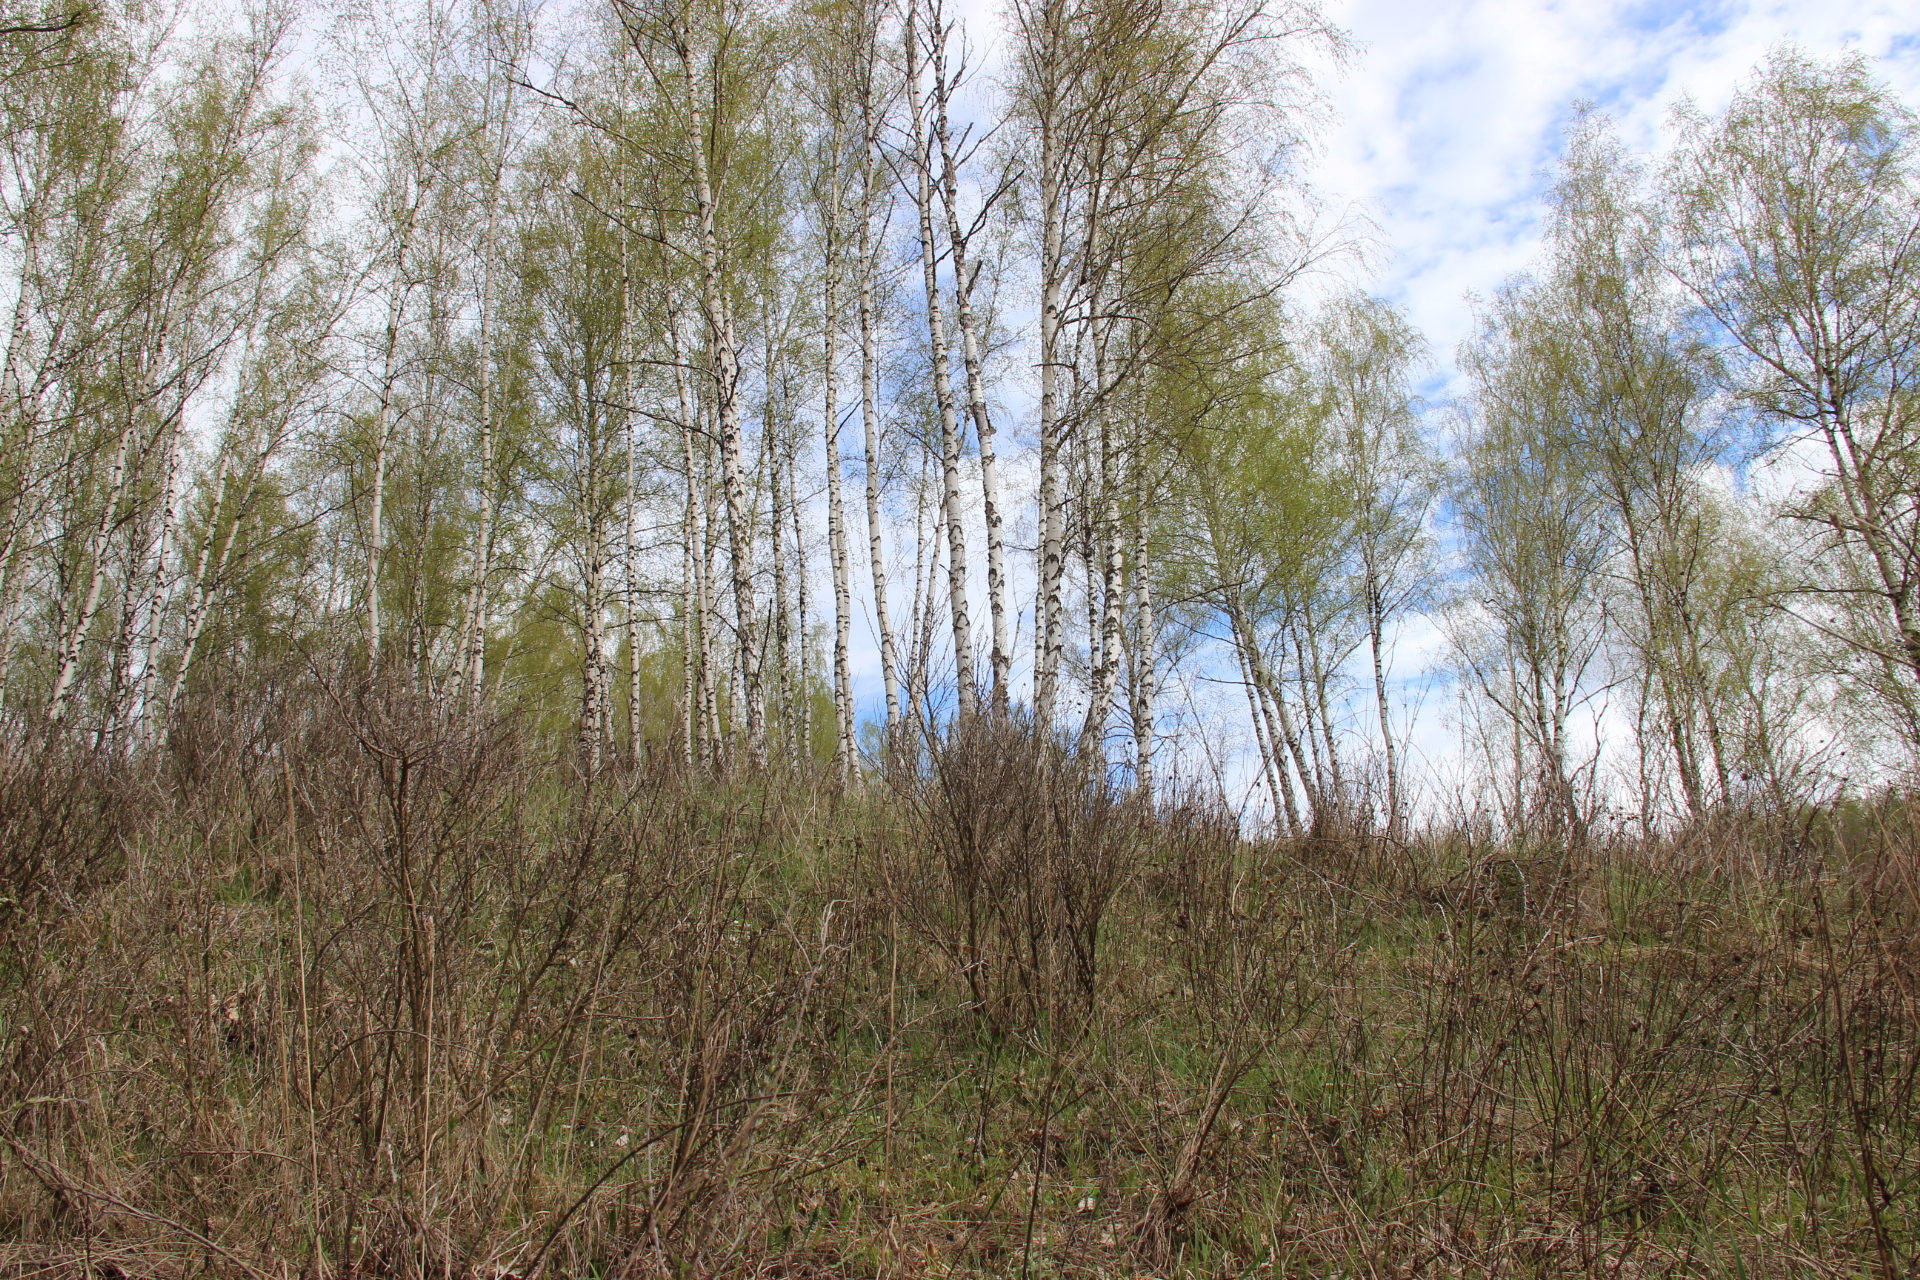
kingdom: Plantae
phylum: Tracheophyta
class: Magnoliopsida
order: Fagales
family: Betulaceae
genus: Betula
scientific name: Betula pendula
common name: Silver birch
